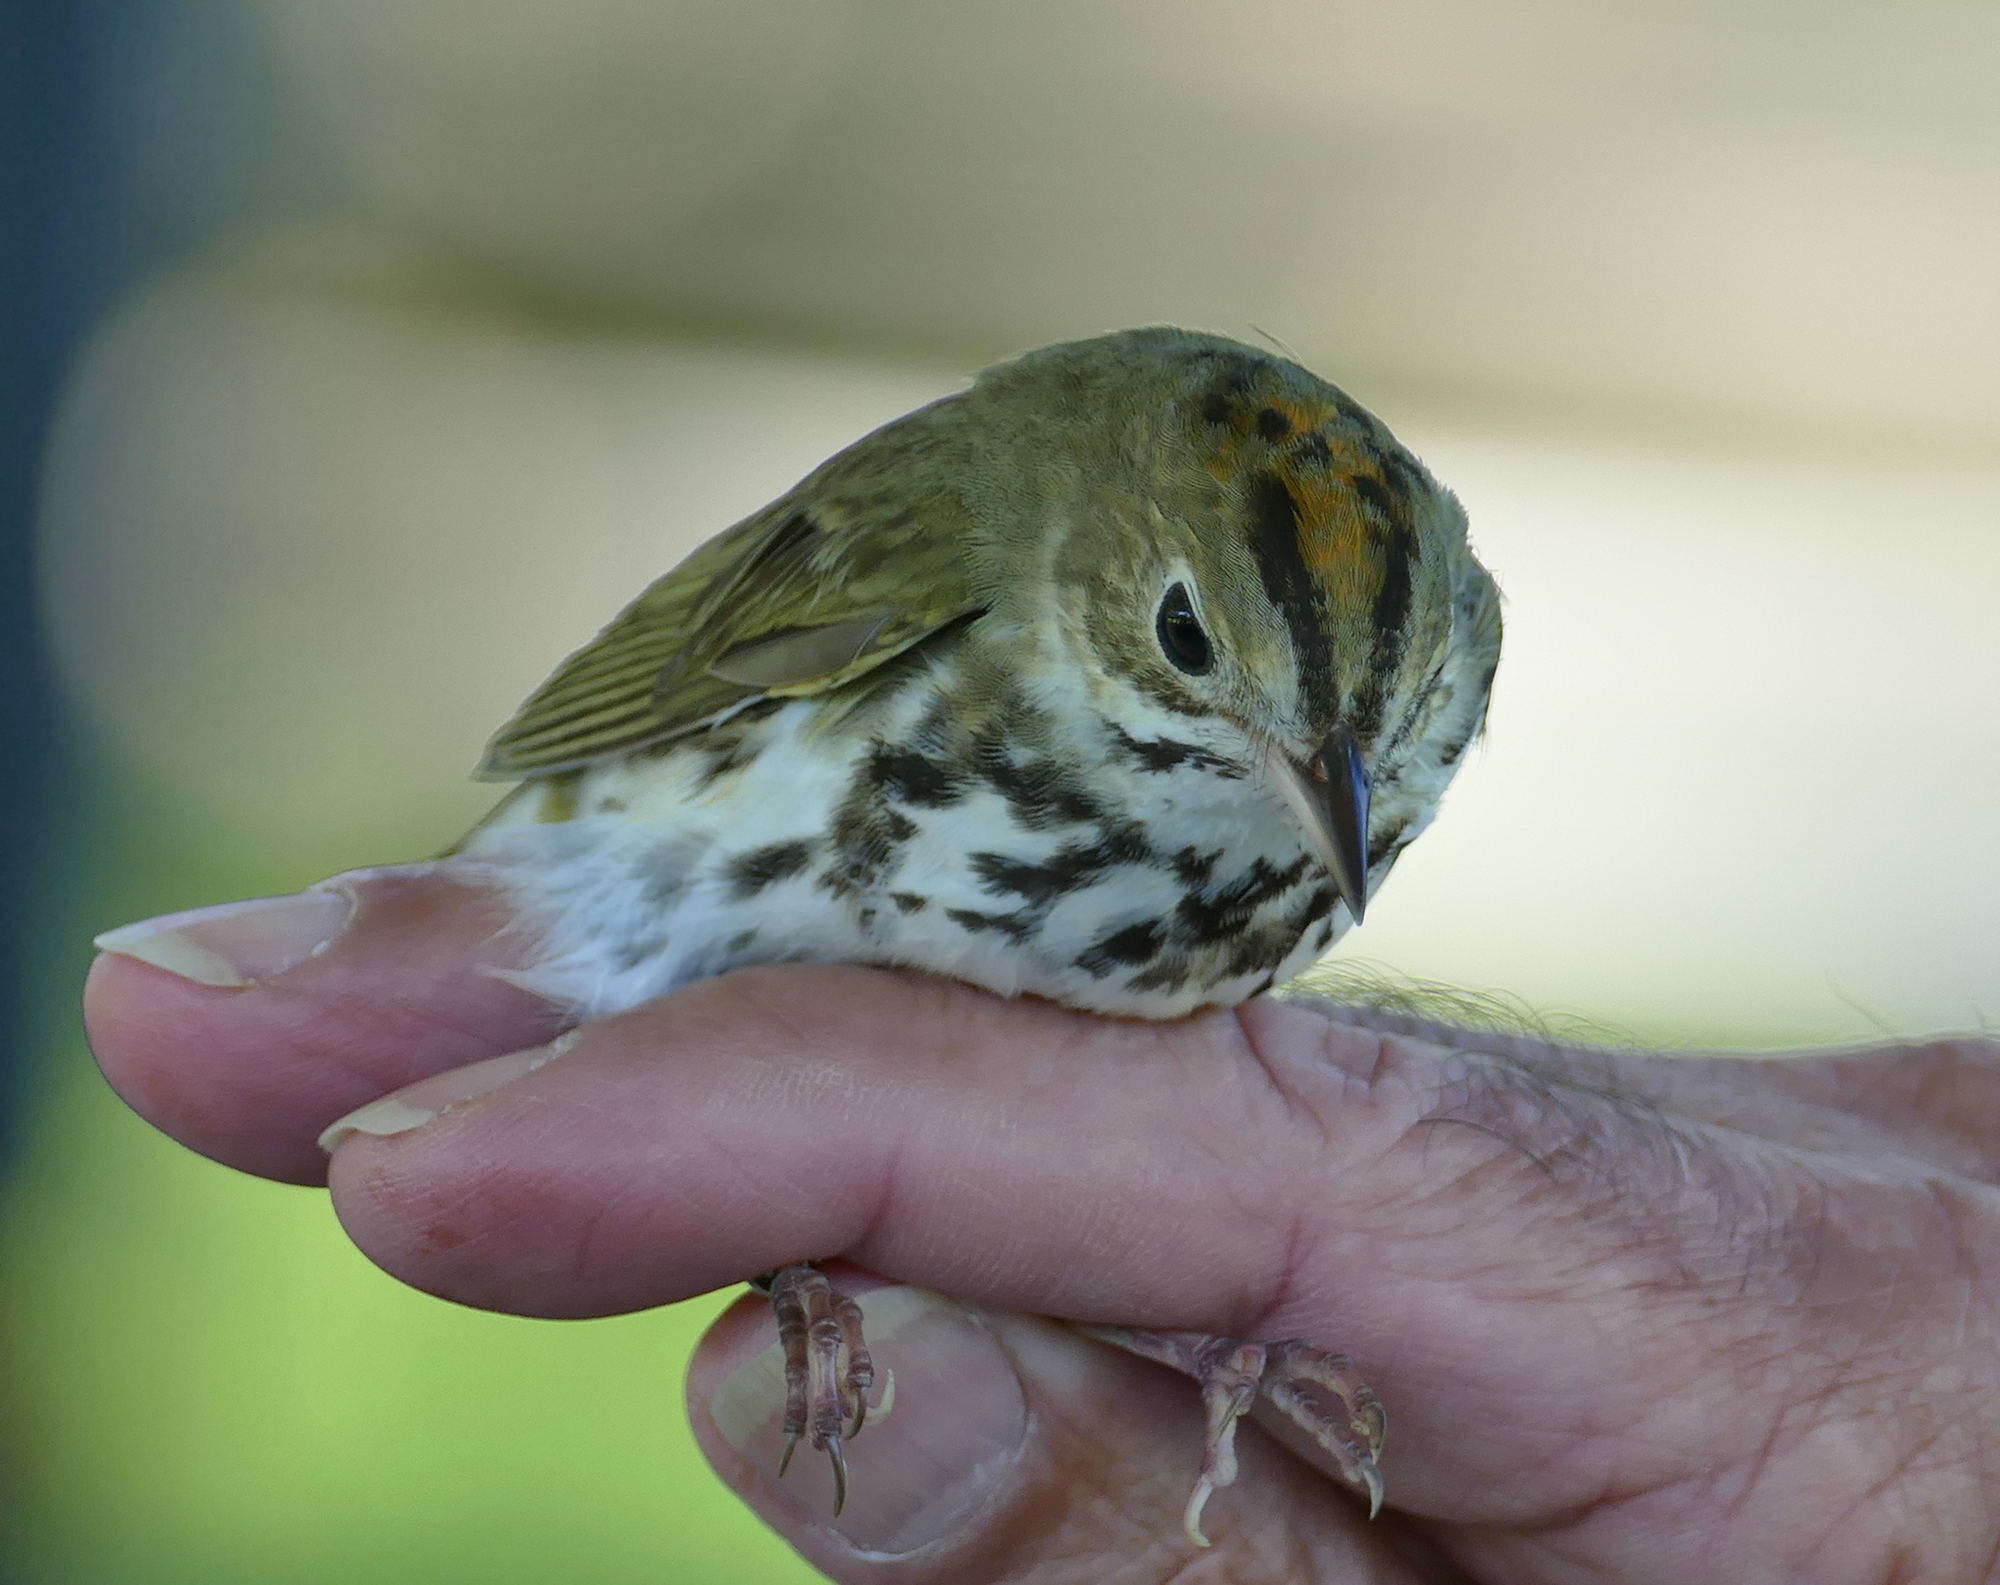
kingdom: Animalia
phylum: Chordata
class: Aves
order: Passeriformes
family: Parulidae
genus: Seiurus
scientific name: Seiurus aurocapilla
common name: Ovenbird
